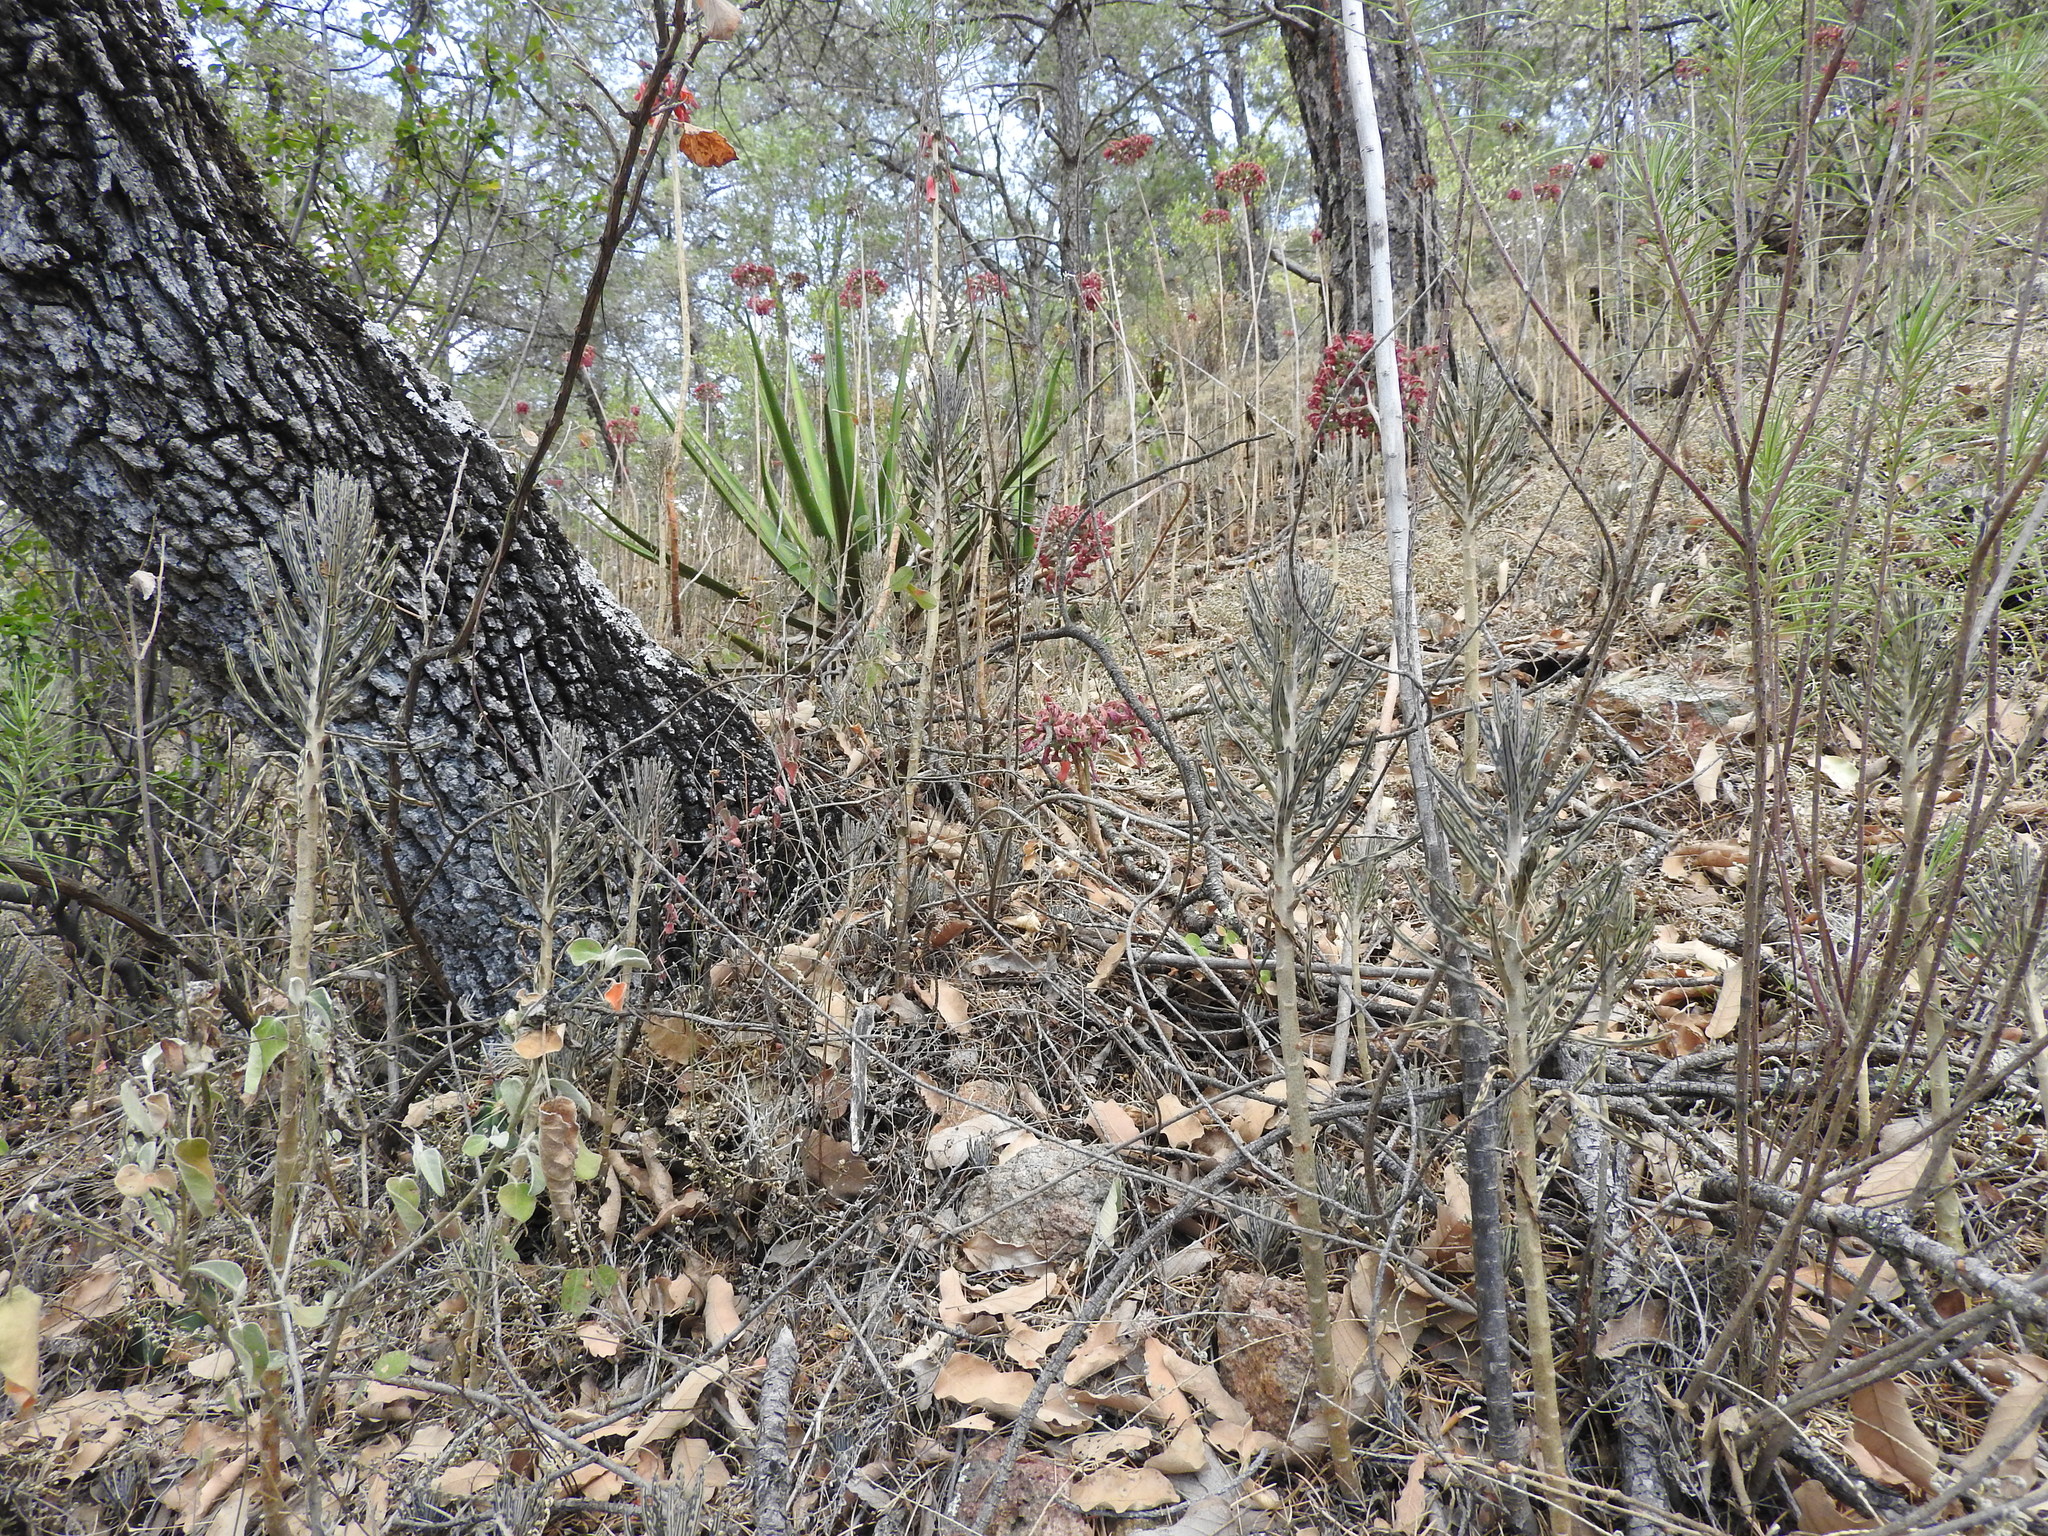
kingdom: Plantae
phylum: Tracheophyta
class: Magnoliopsida
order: Saxifragales
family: Crassulaceae
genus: Kalanchoe
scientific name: Kalanchoe delagoensis
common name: Chandelier plant
